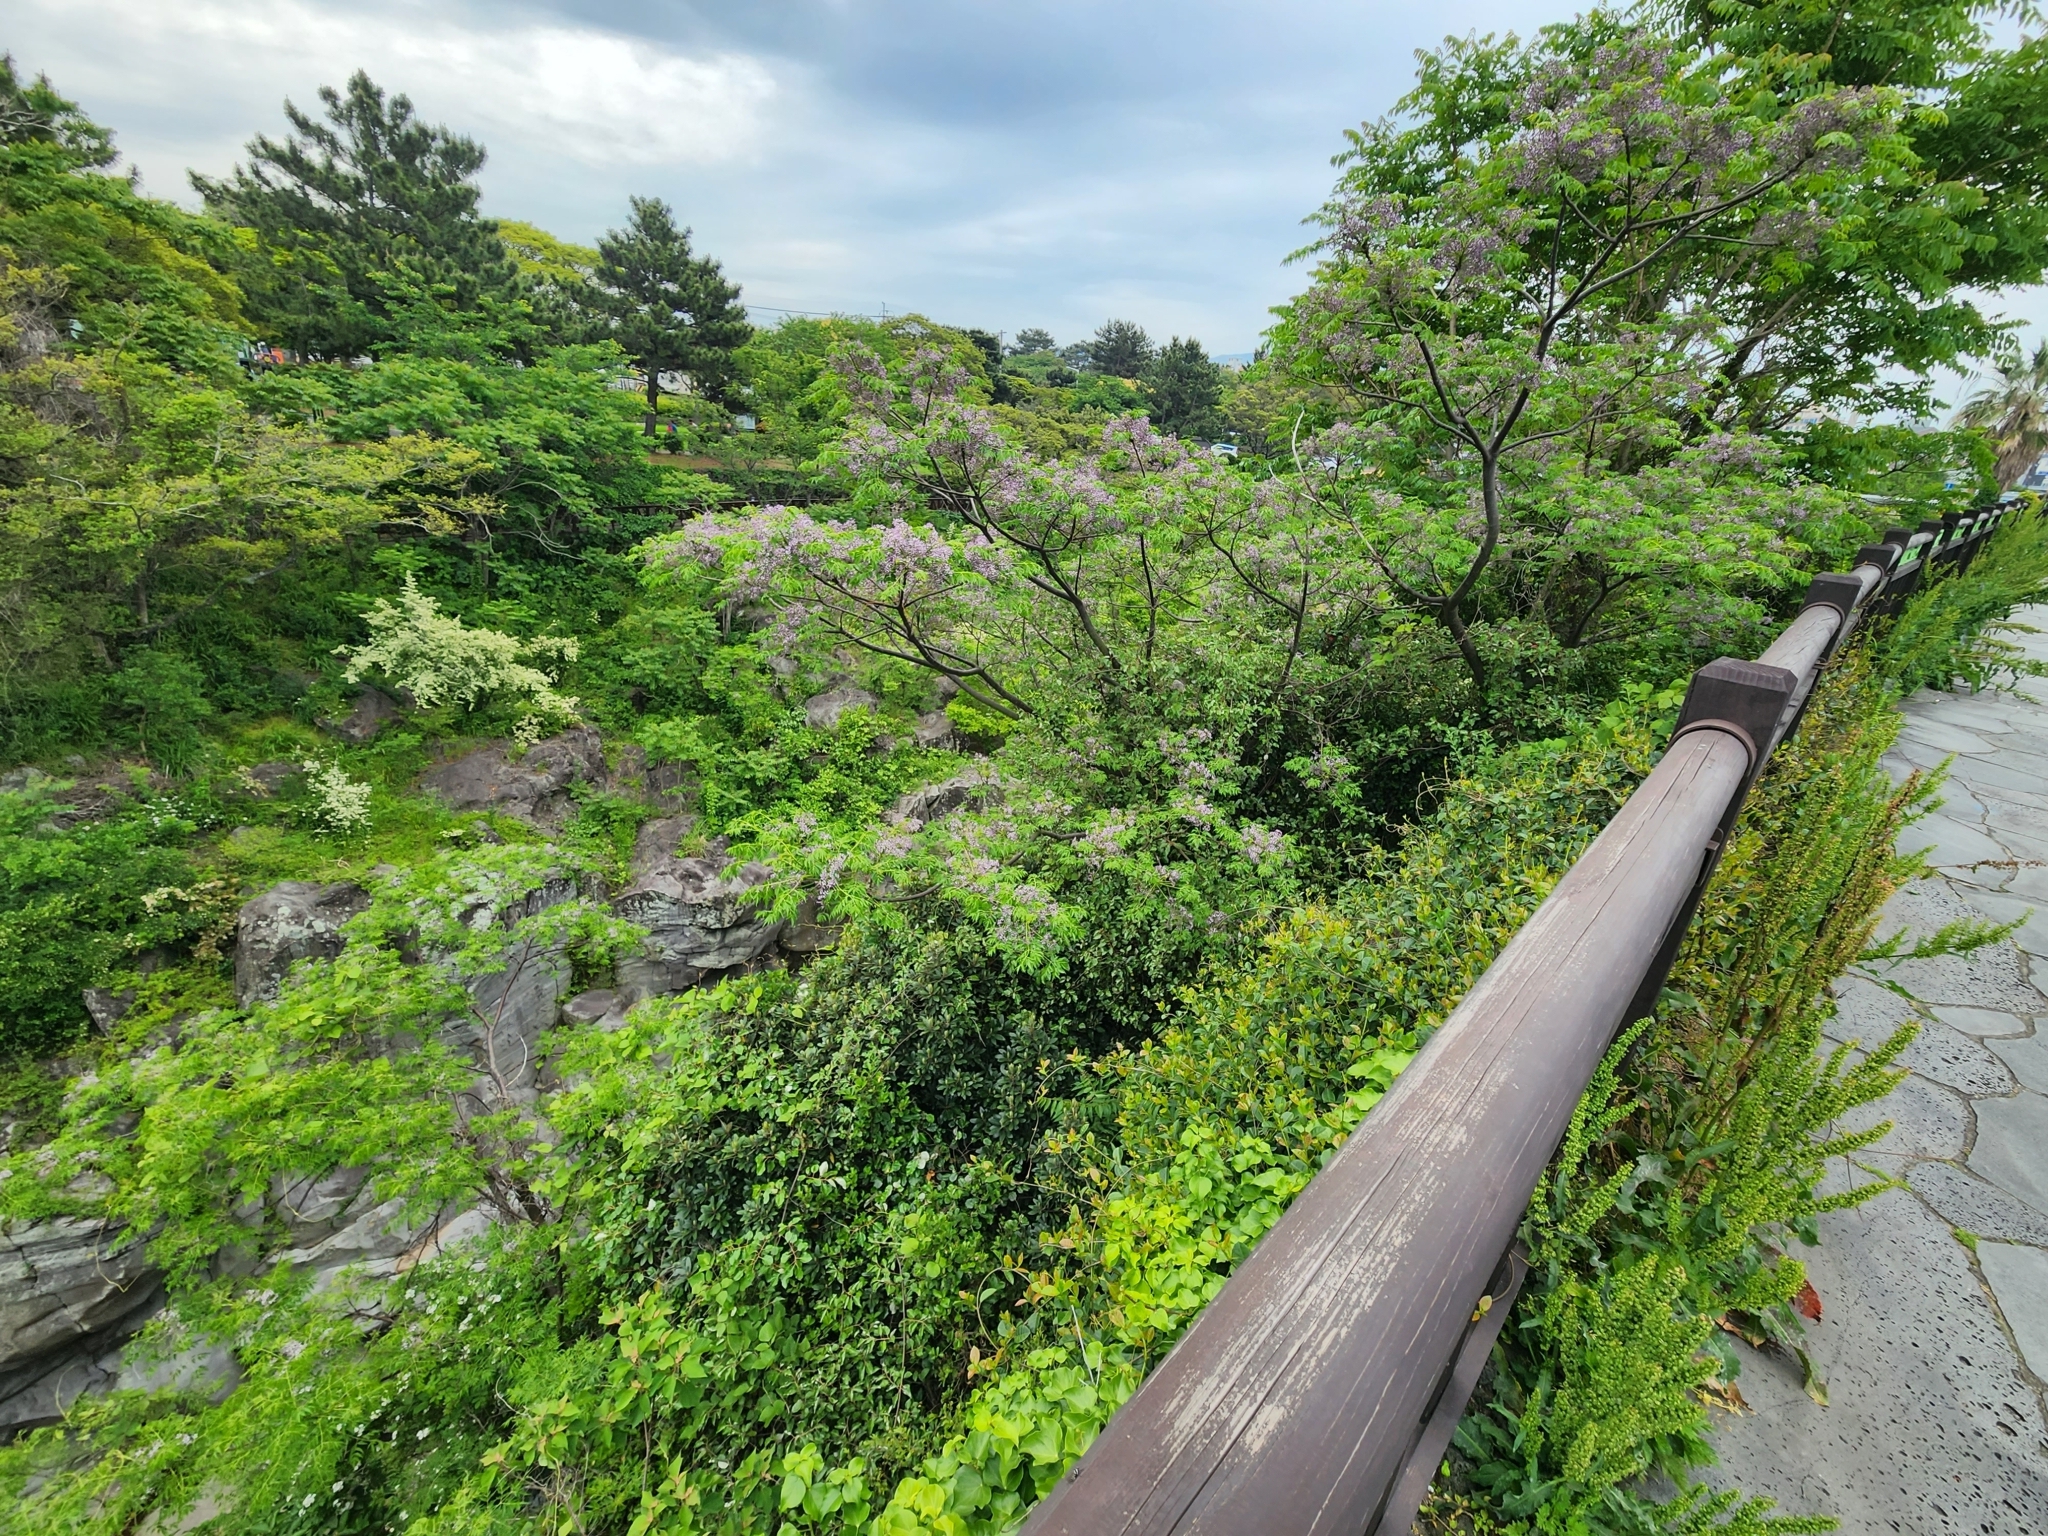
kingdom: Plantae
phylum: Tracheophyta
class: Magnoliopsida
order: Sapindales
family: Meliaceae
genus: Melia
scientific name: Melia azedarach
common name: Chinaberrytree
